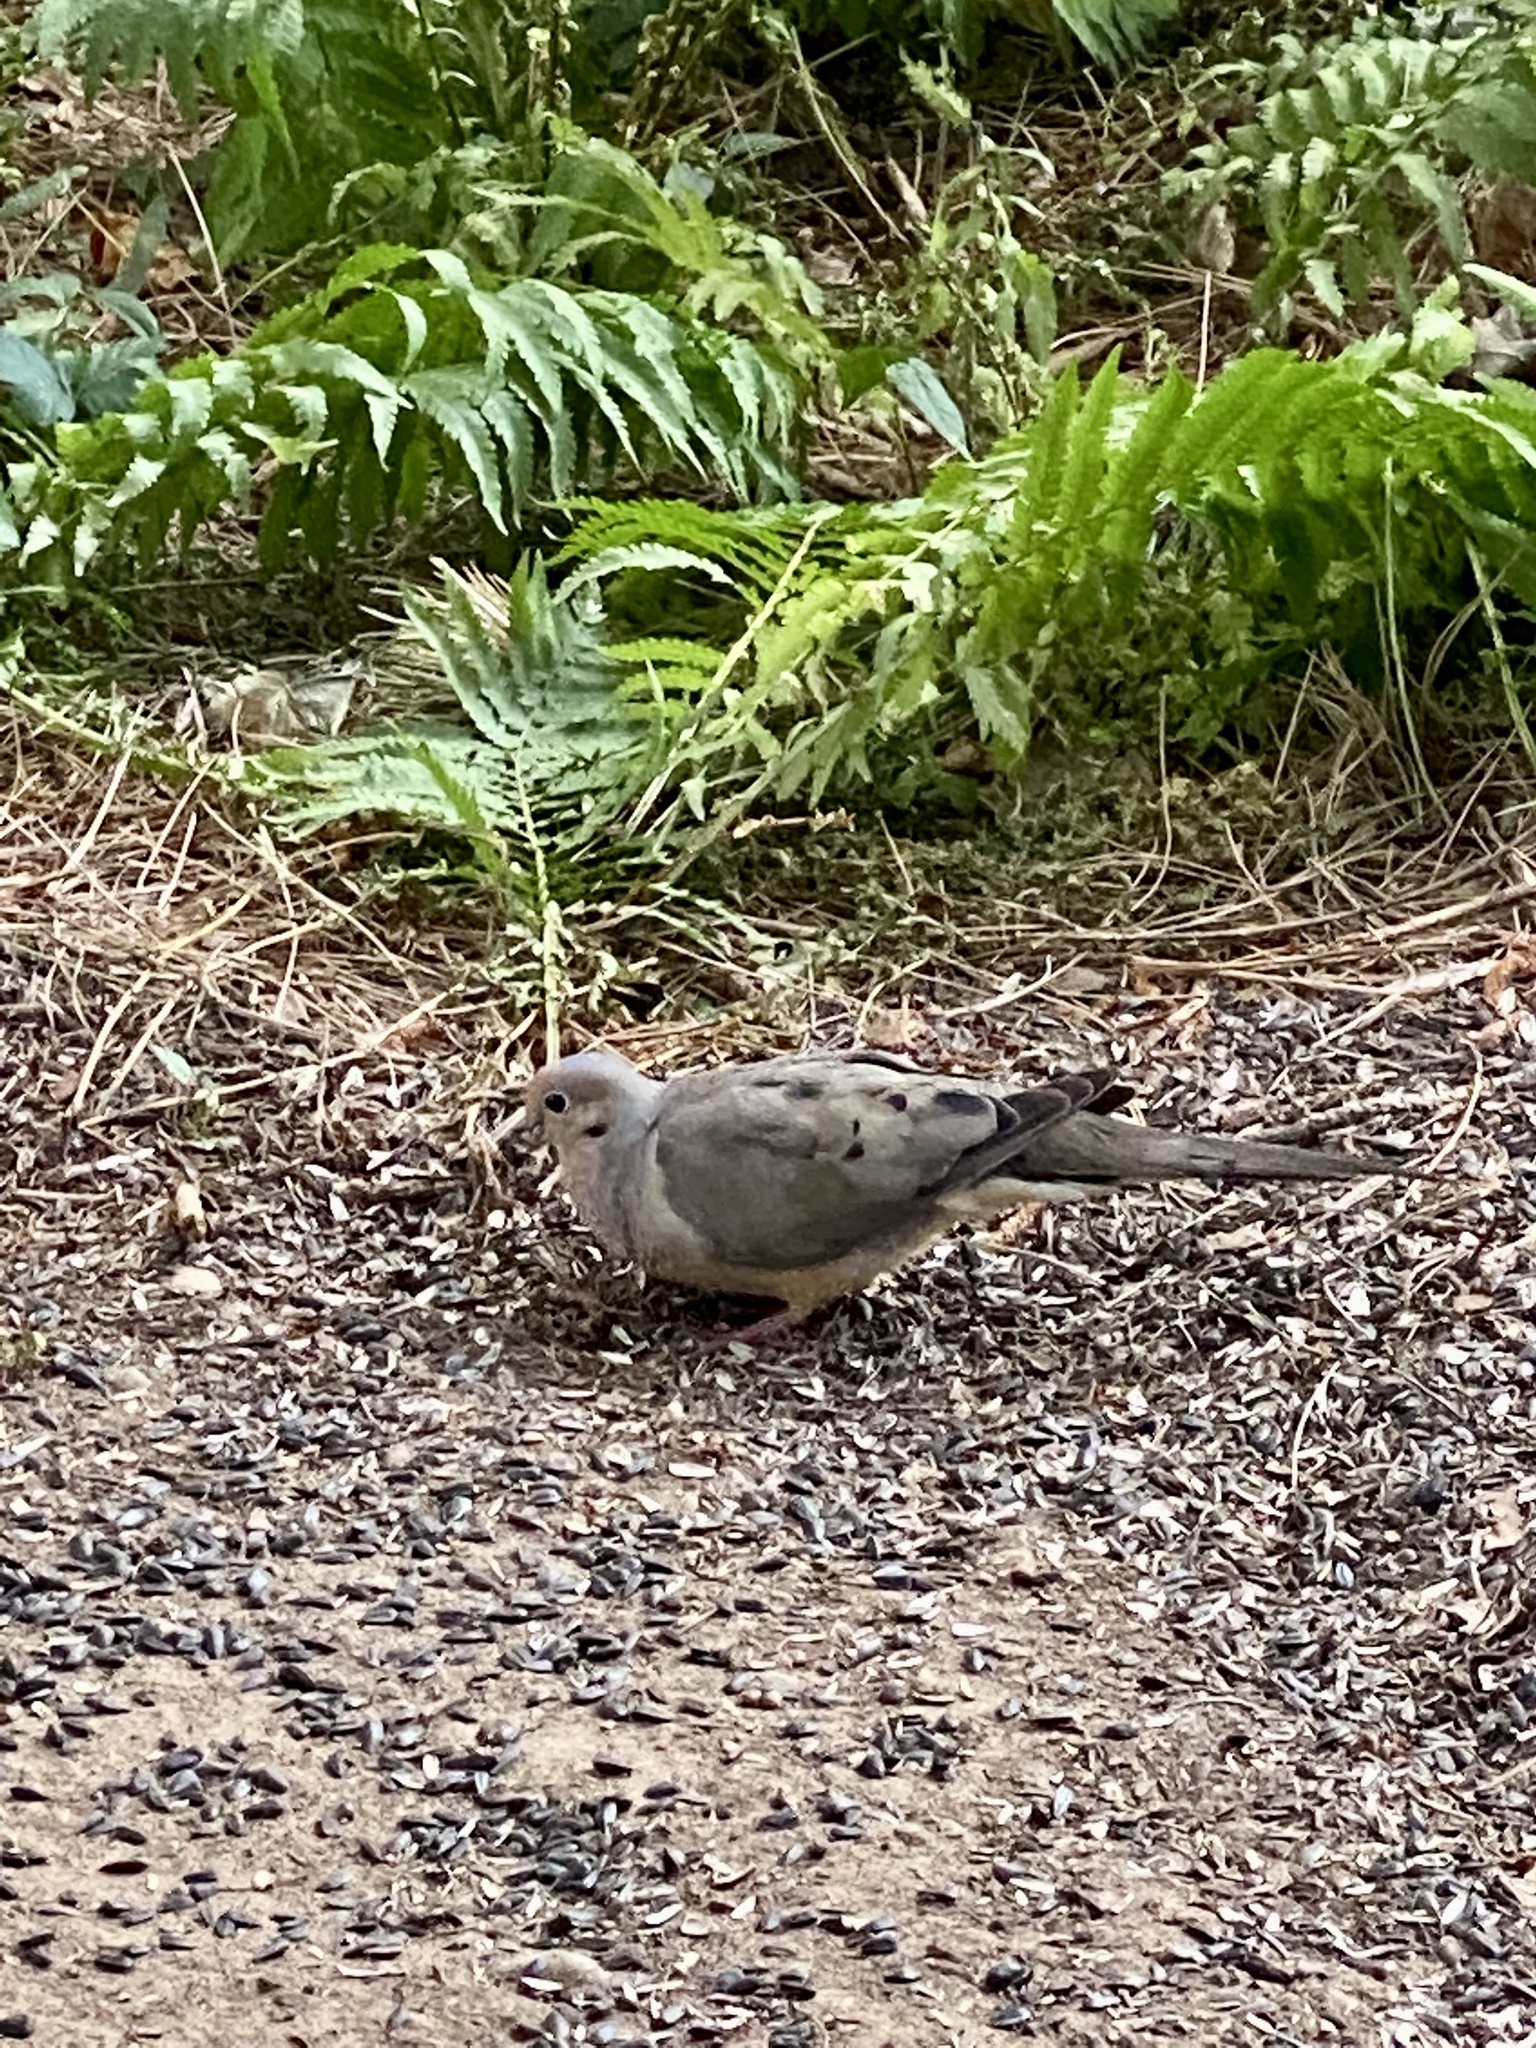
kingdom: Animalia
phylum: Chordata
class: Aves
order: Columbiformes
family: Columbidae
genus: Zenaida
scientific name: Zenaida macroura
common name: Mourning dove
